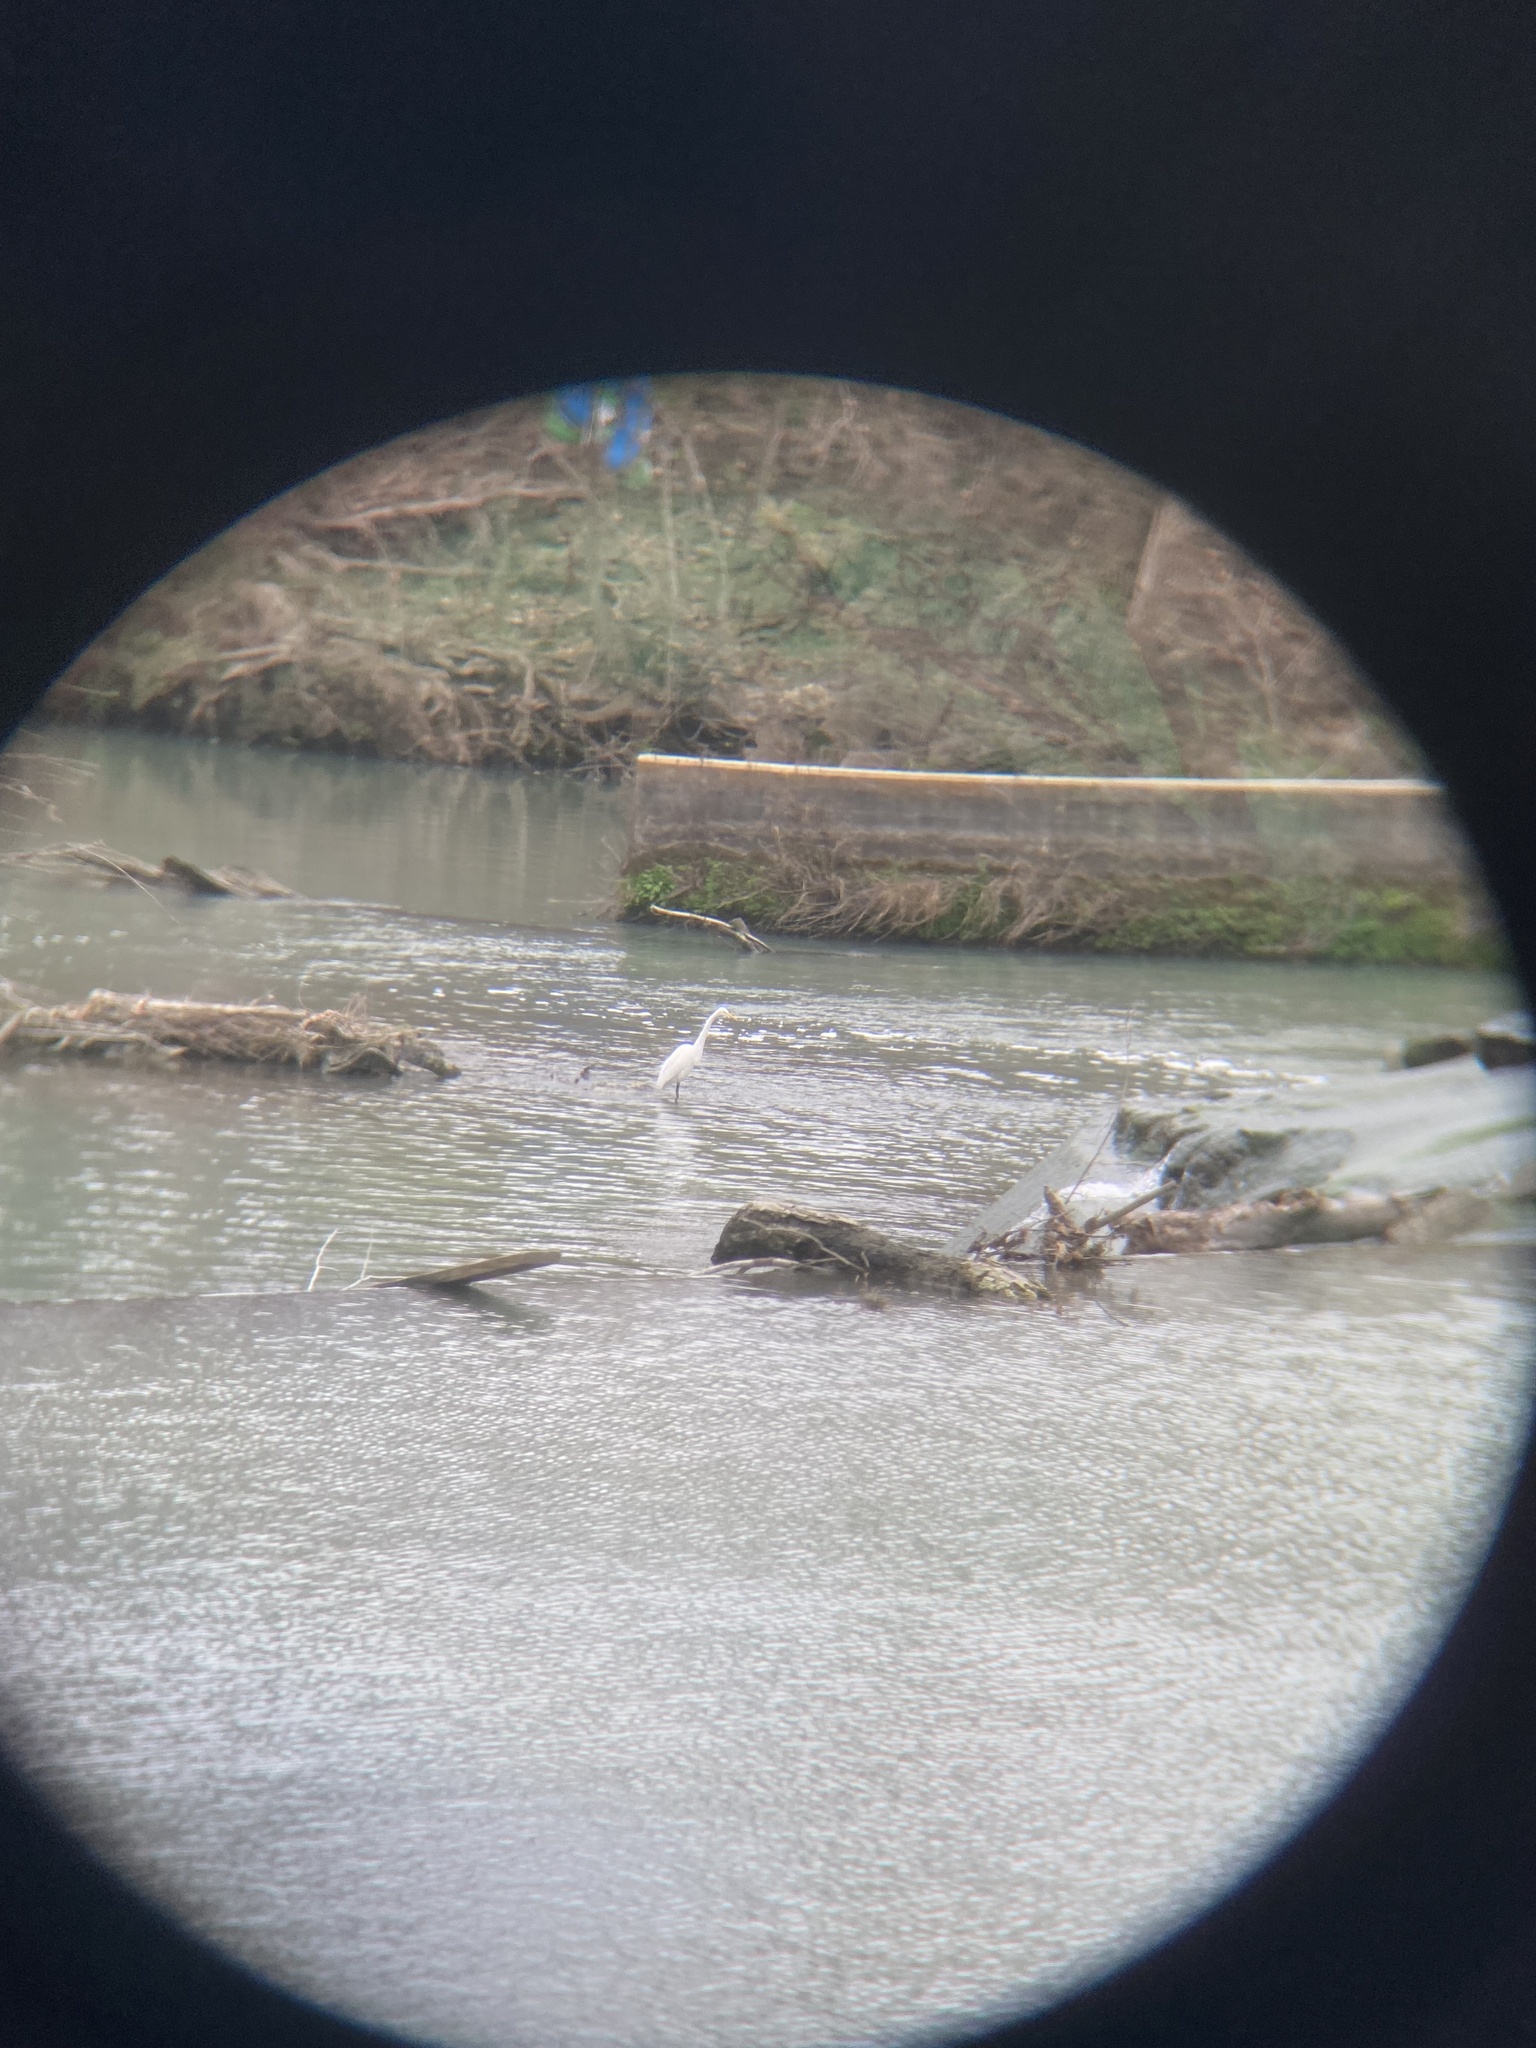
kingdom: Animalia
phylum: Chordata
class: Aves
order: Pelecaniformes
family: Ardeidae
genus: Ardea
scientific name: Ardea alba
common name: Great egret
